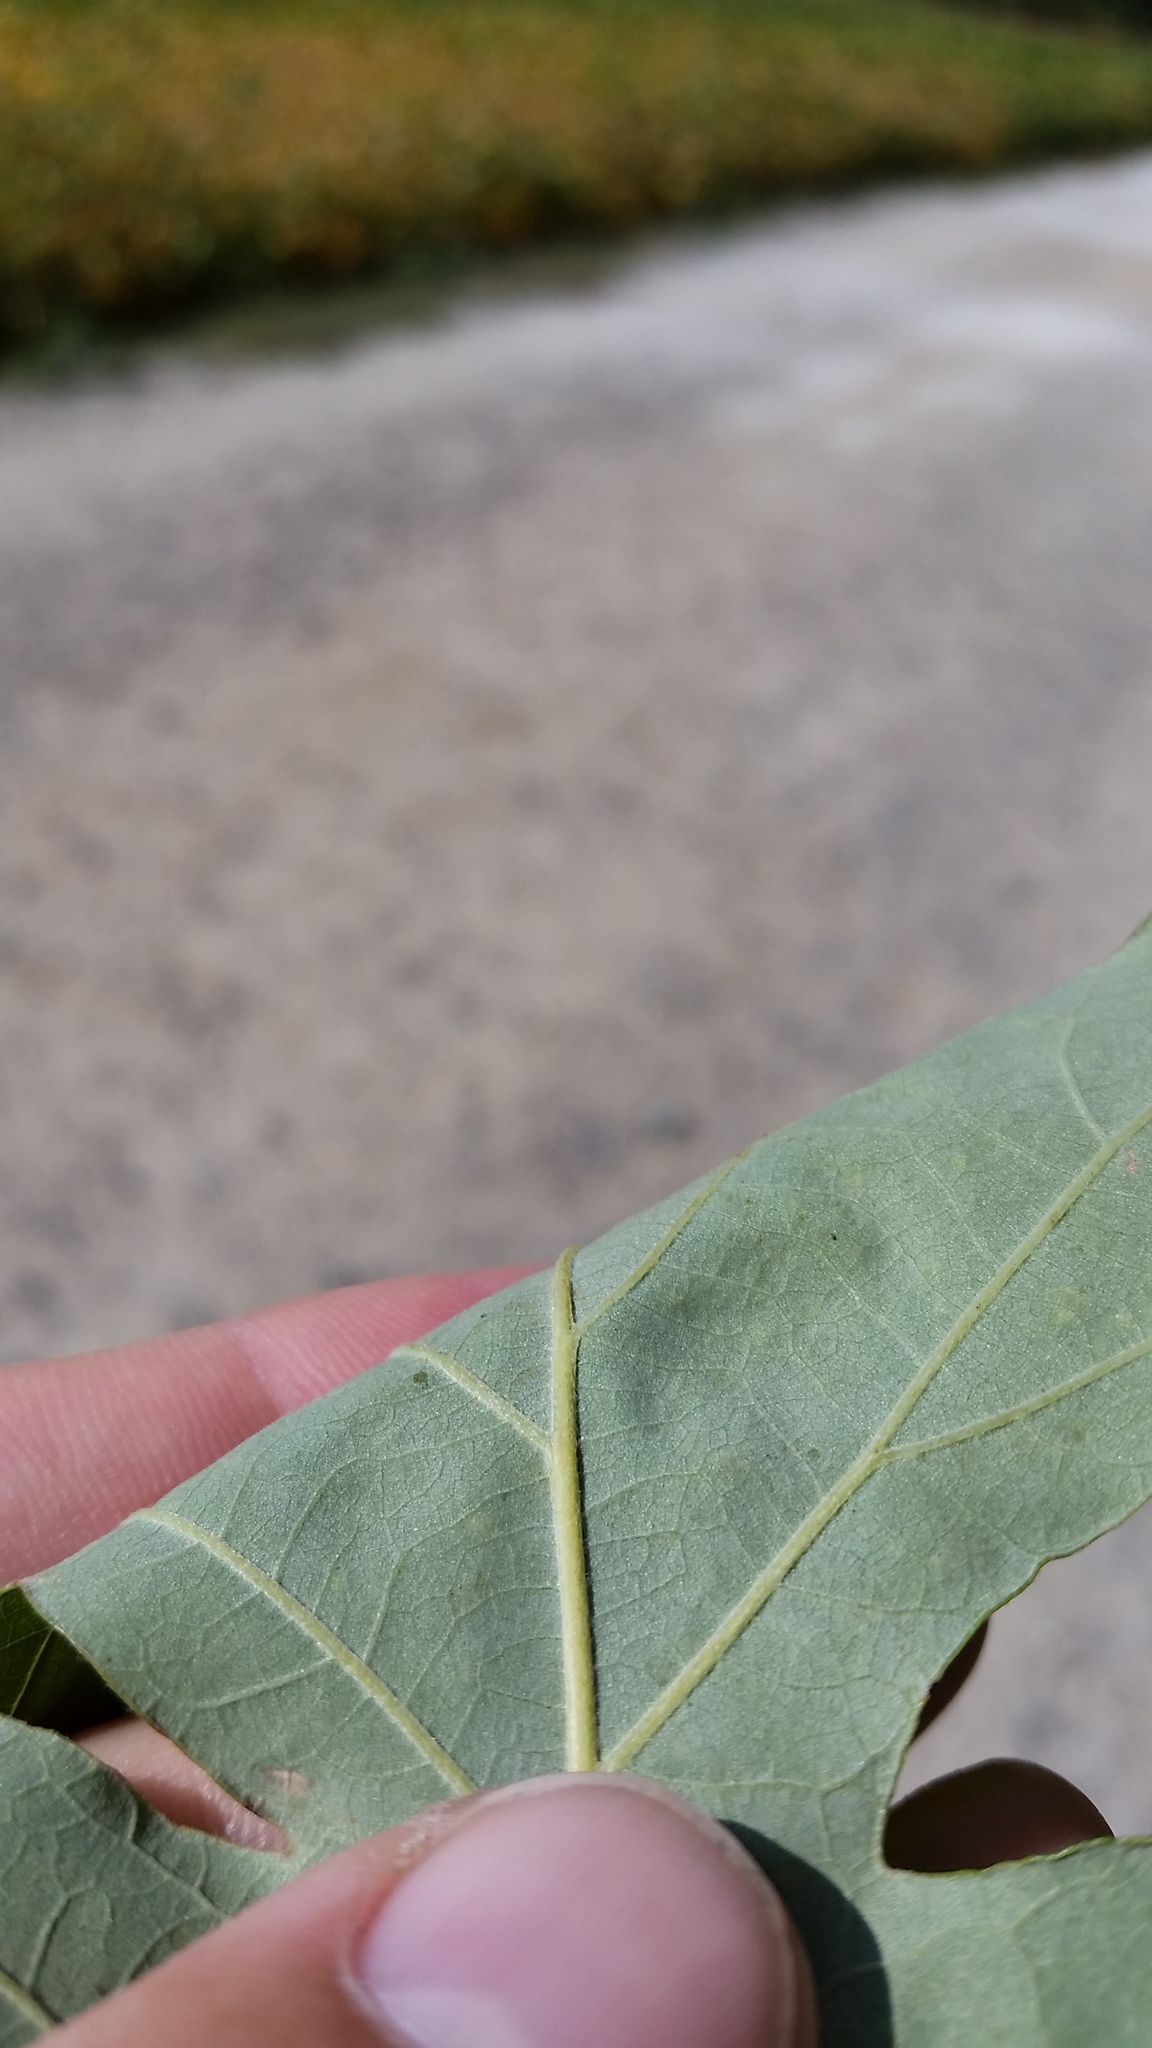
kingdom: Plantae
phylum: Tracheophyta
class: Magnoliopsida
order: Fagales
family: Fagaceae
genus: Quercus
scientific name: Quercus macrocarpa
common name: Bur oak
